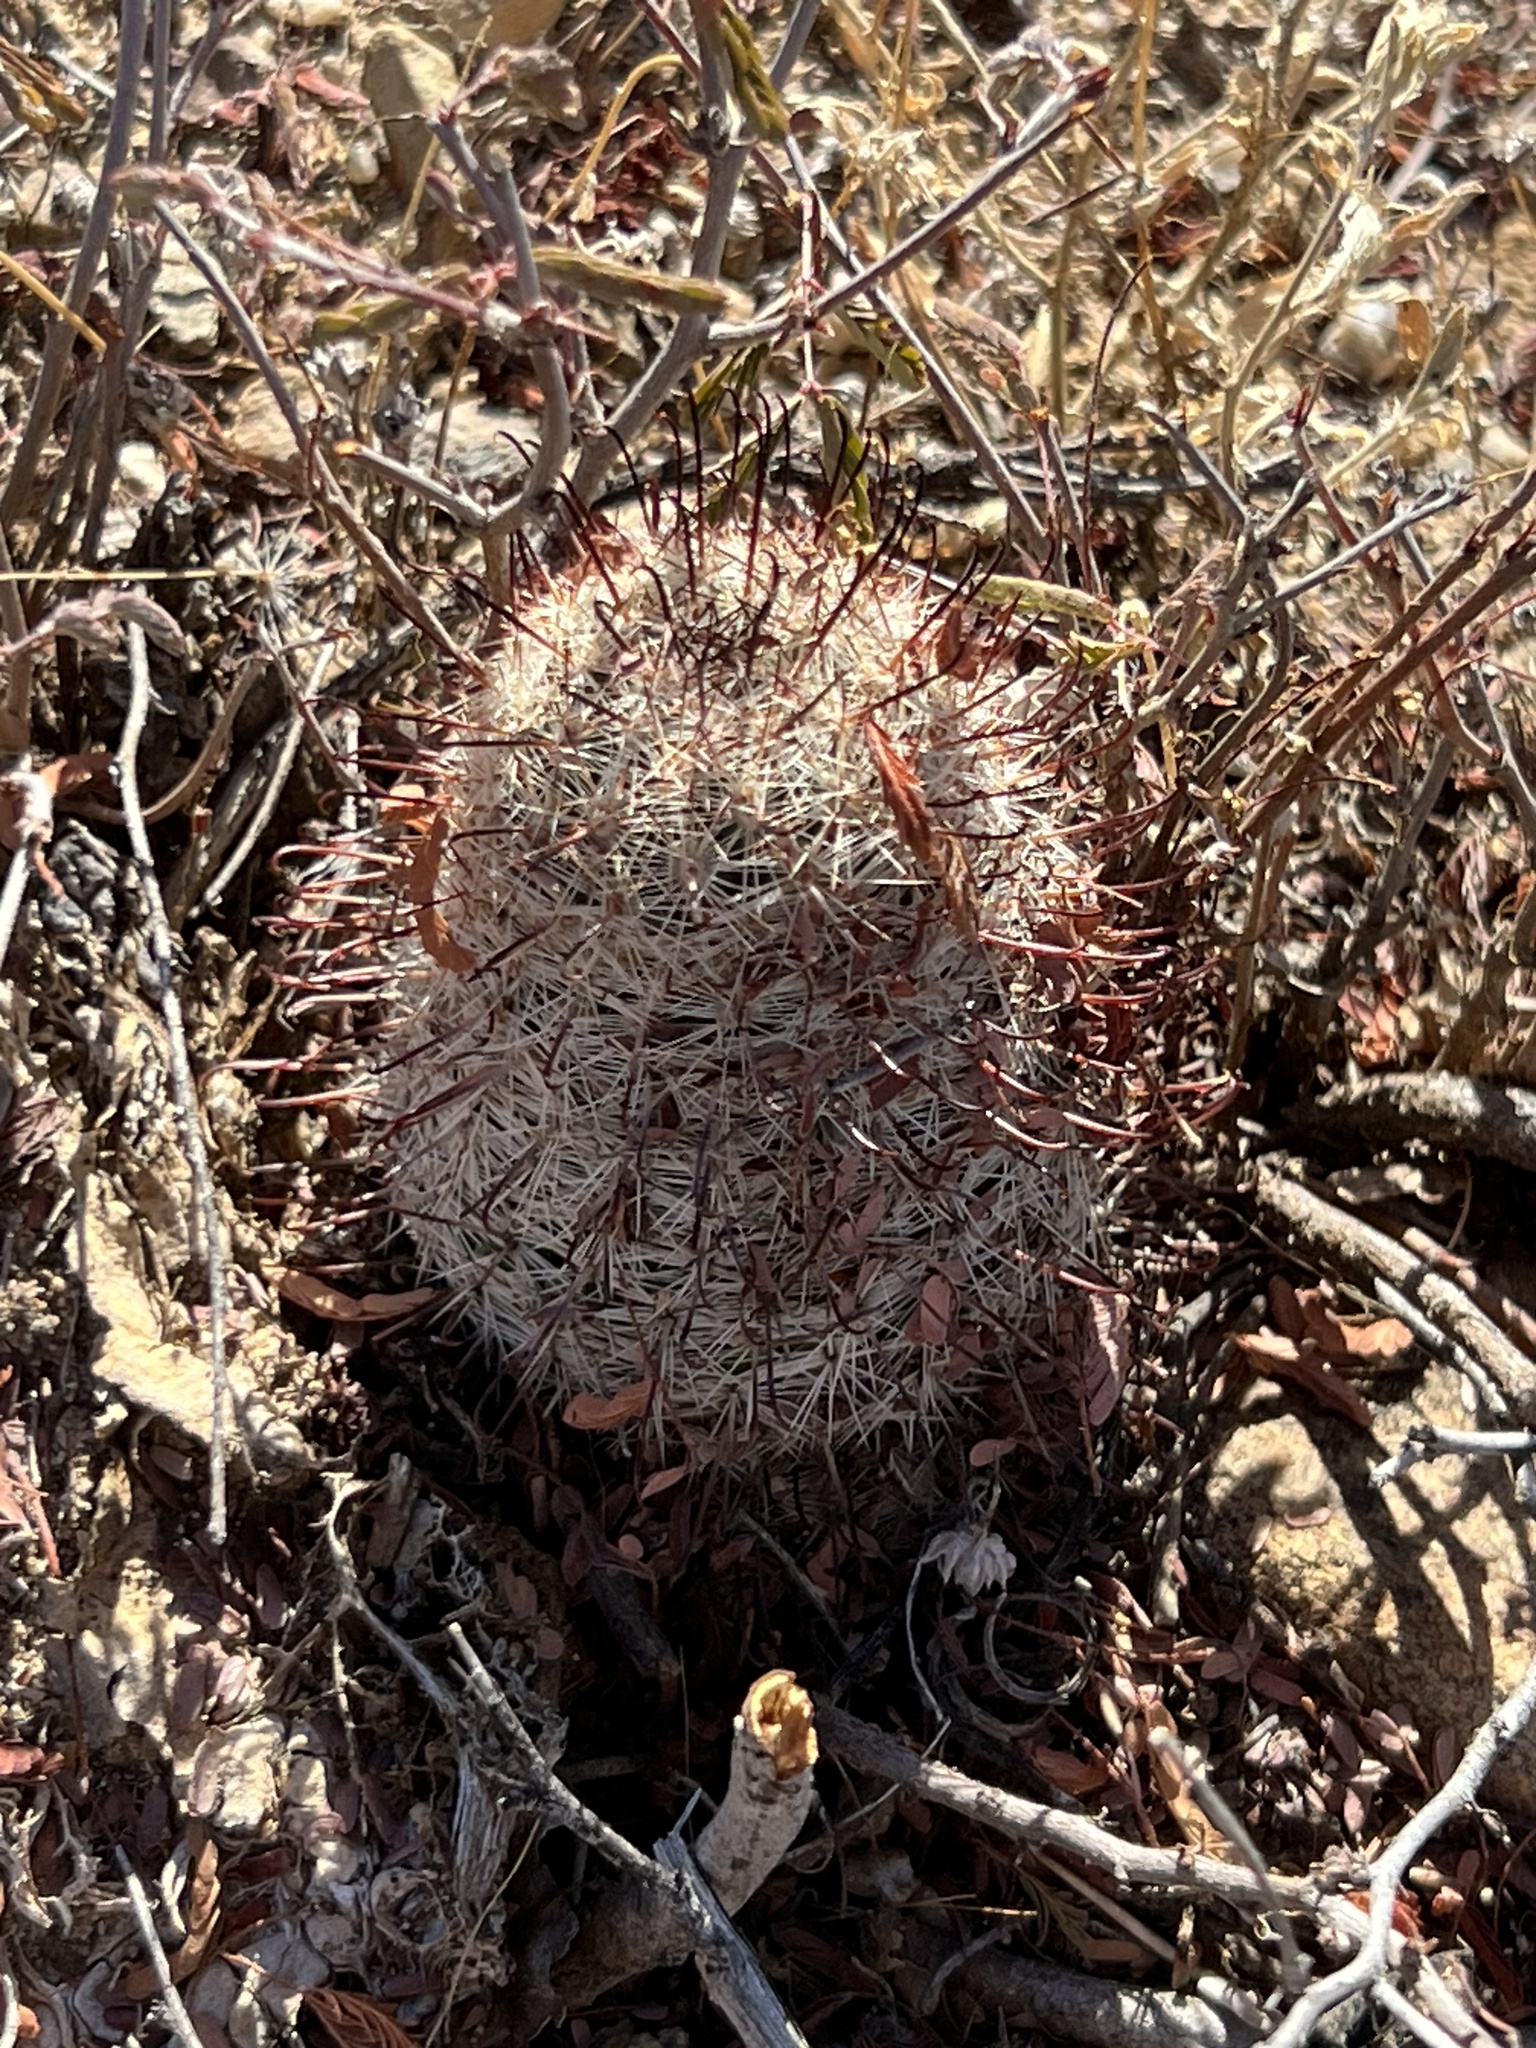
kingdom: Plantae
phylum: Tracheophyta
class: Magnoliopsida
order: Caryophyllales
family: Cactaceae
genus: Cochemiea
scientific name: Cochemiea grahamii
